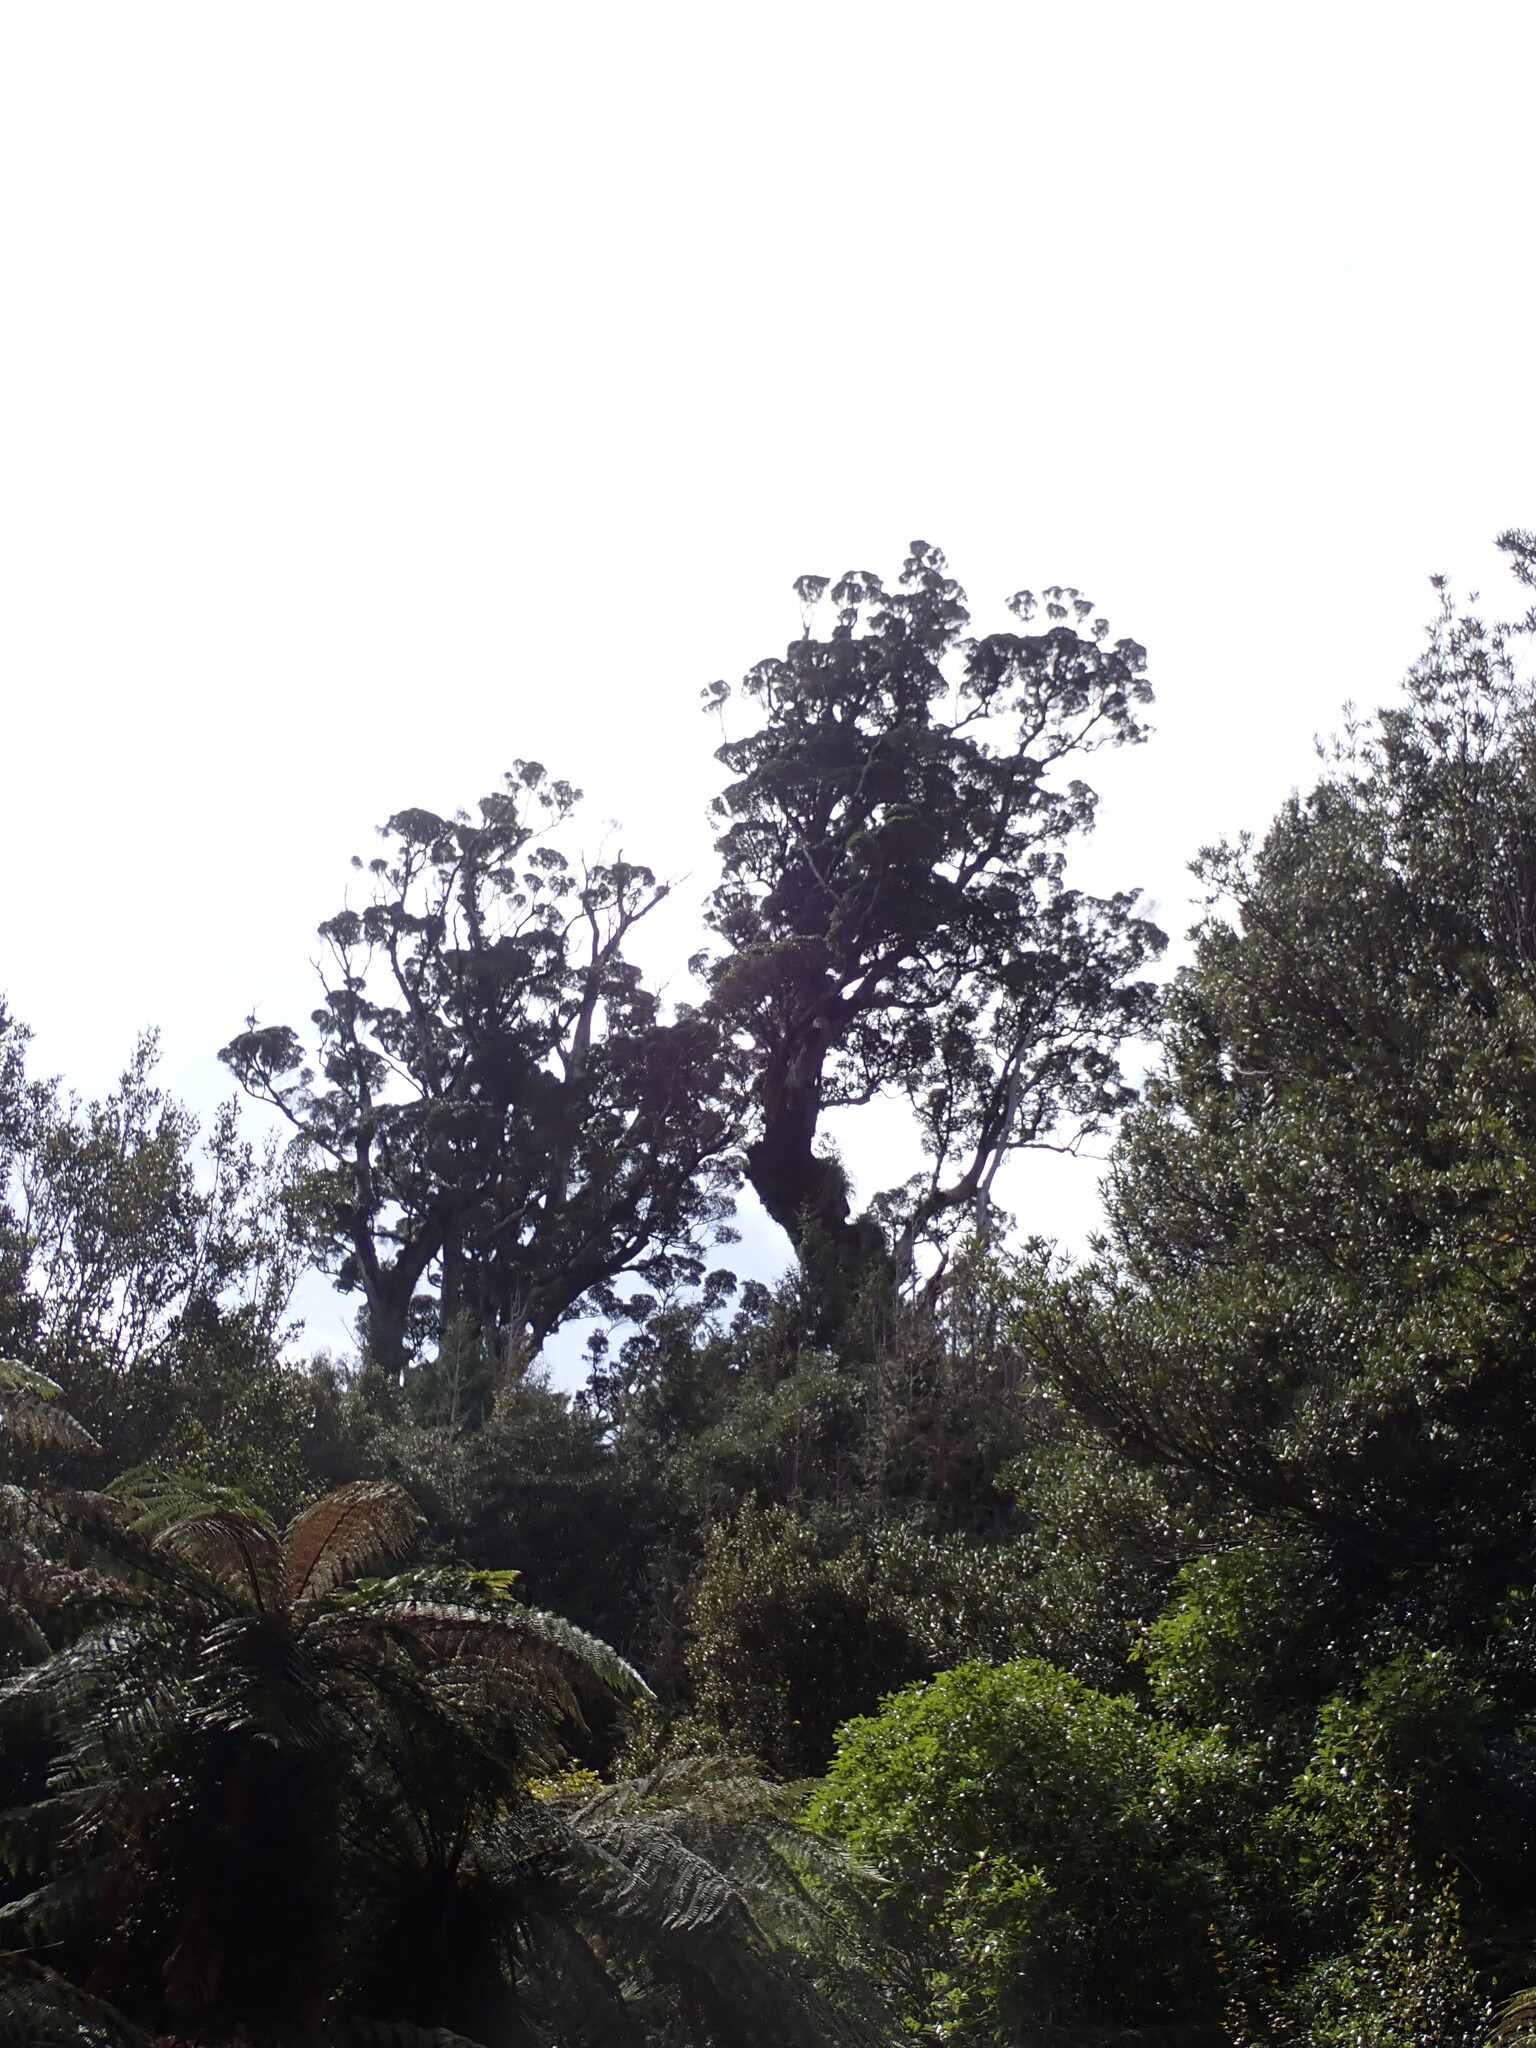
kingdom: Plantae
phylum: Tracheophyta
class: Magnoliopsida
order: Myrtales
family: Myrtaceae
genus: Metrosideros
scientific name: Metrosideros robusta
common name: Northern rata
